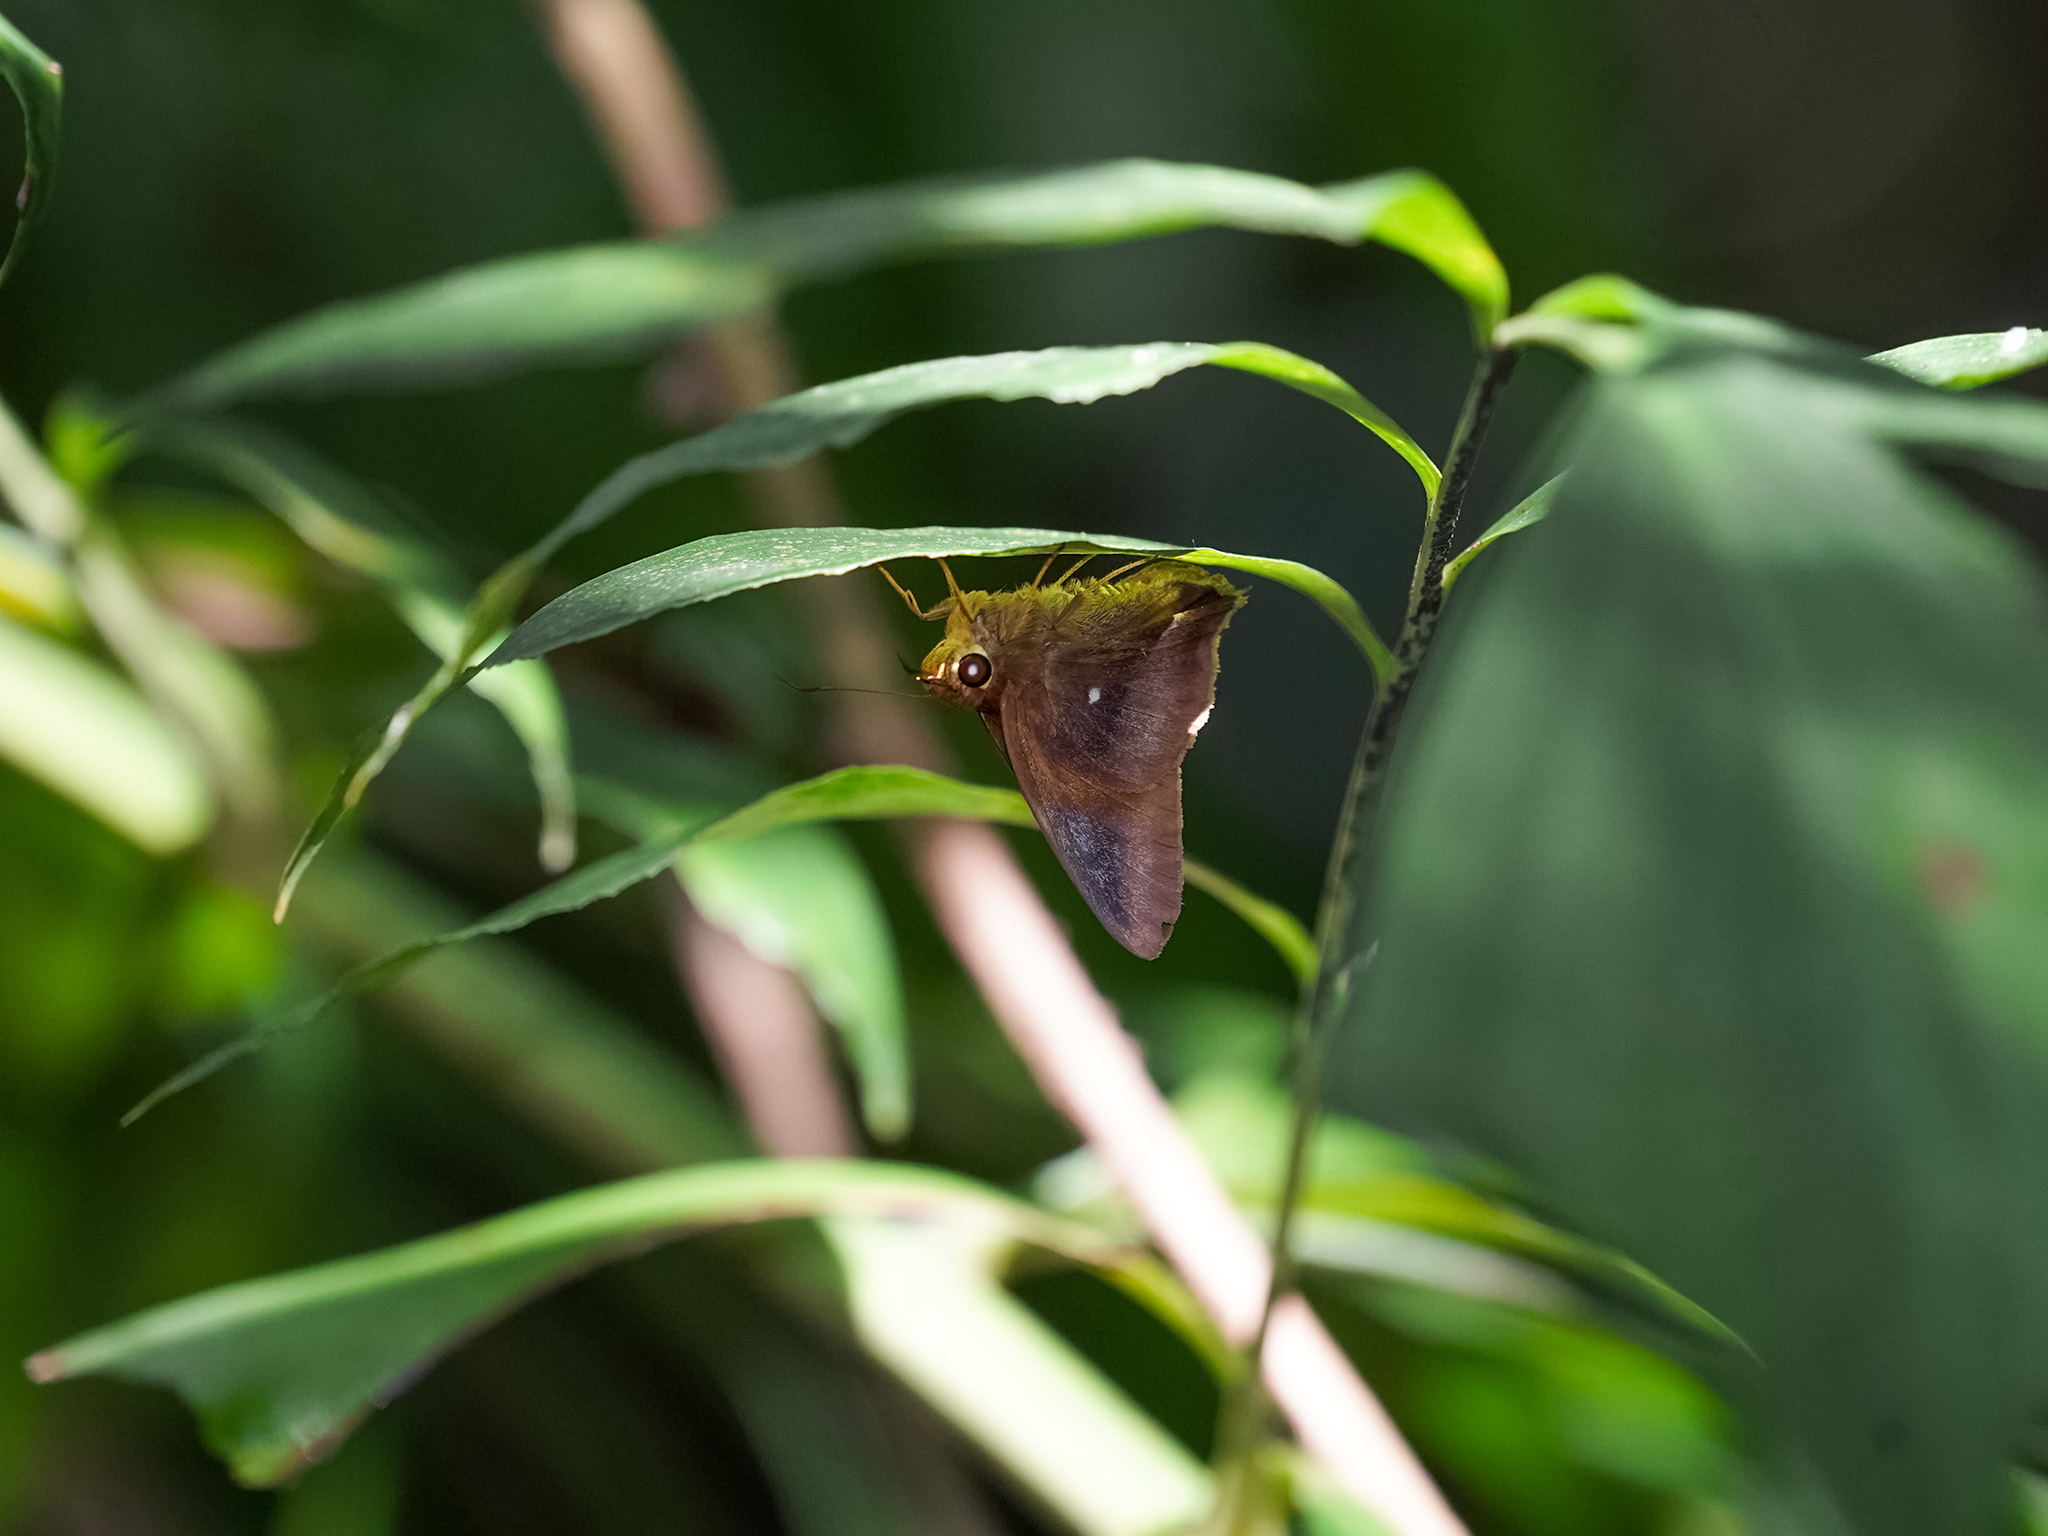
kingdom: Animalia
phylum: Arthropoda
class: Insecta
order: Lepidoptera
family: Hesperiidae
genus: Hasora
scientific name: Hasora badra
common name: Common awl
